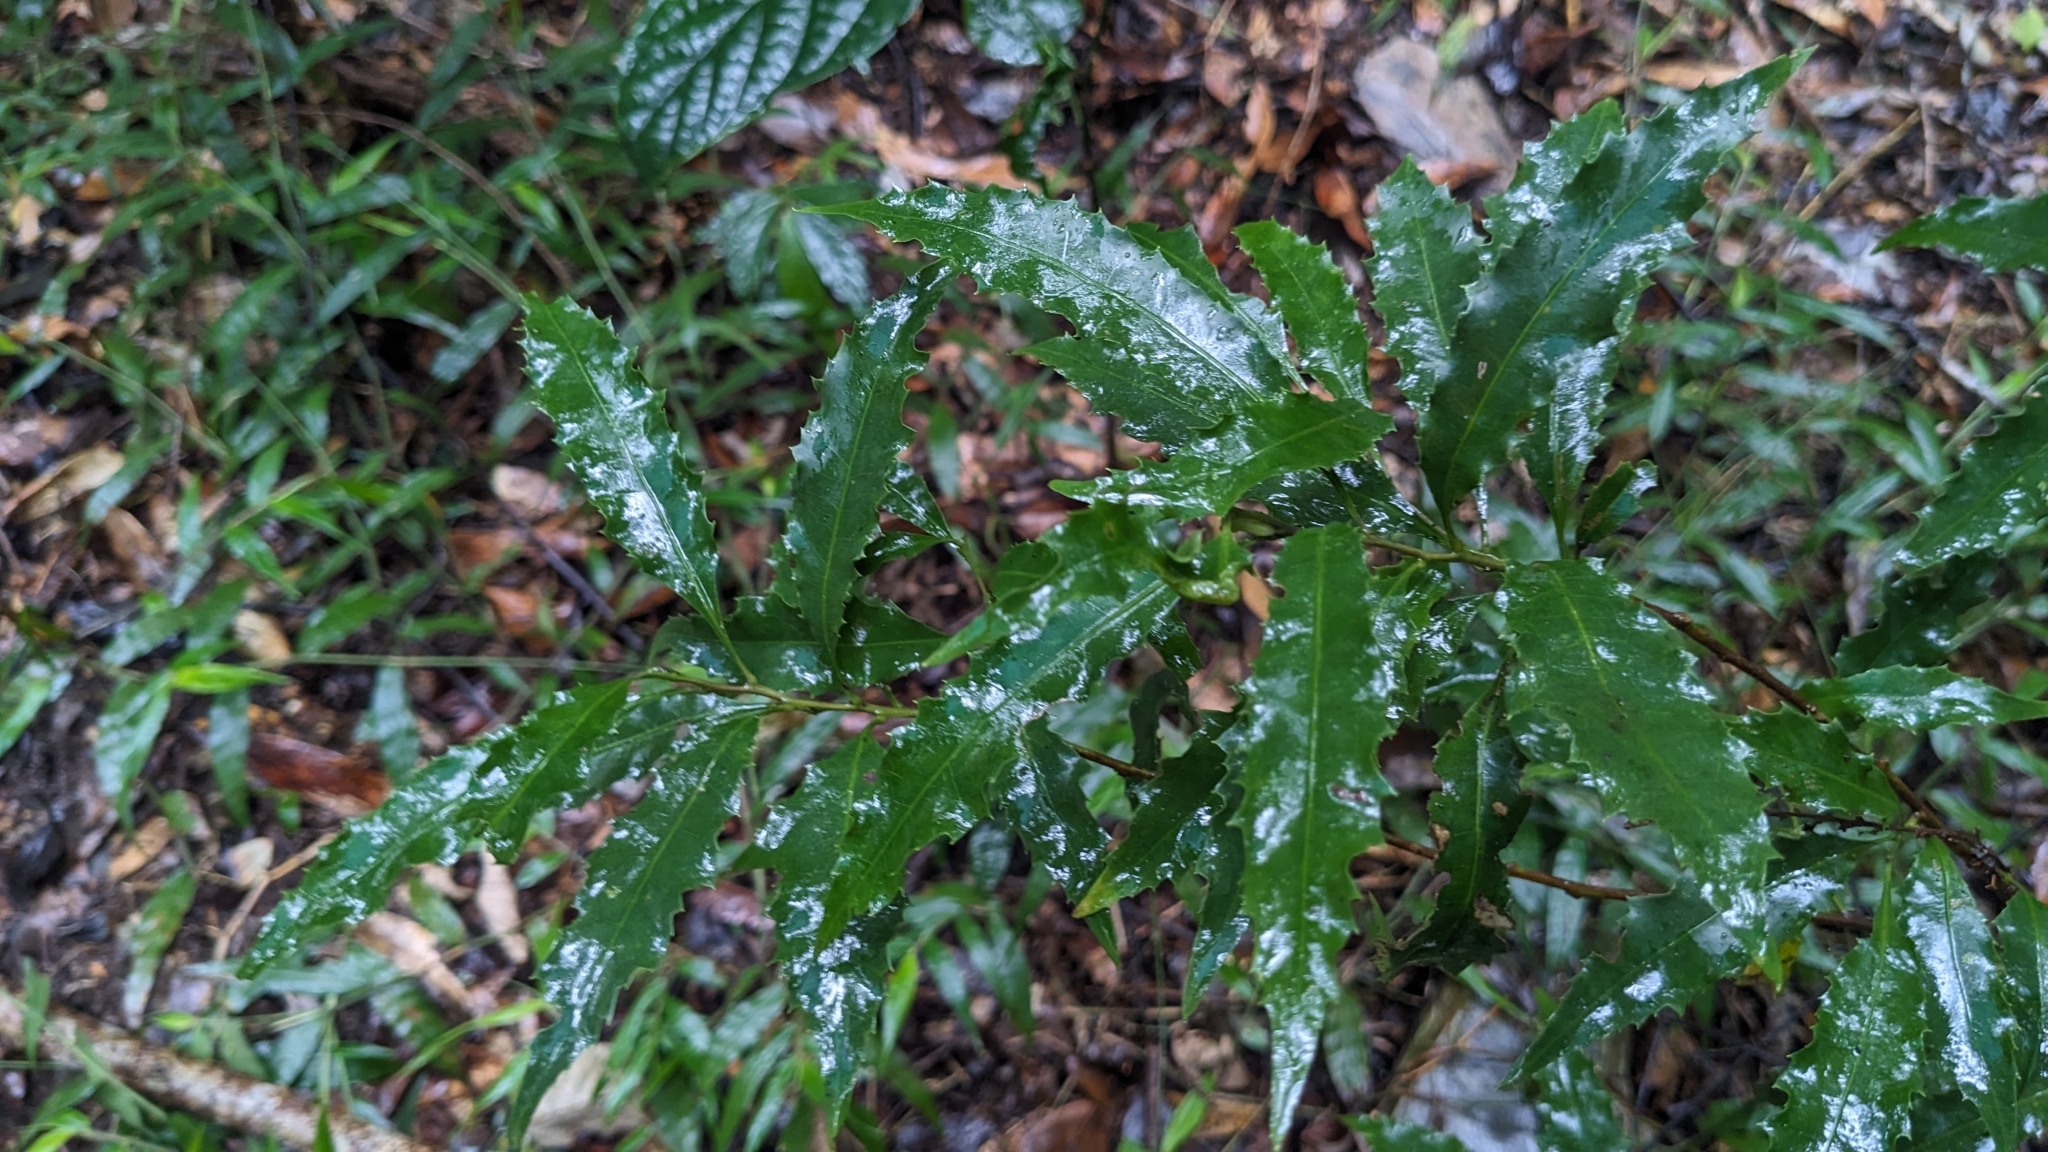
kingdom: Plantae
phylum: Tracheophyta
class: Magnoliopsida
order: Proteales
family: Proteaceae
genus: Helicia
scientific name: Helicia cochinchinensis
